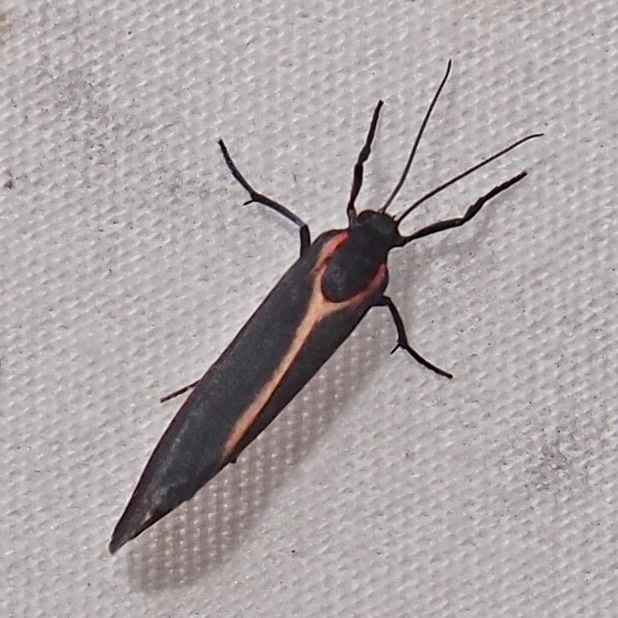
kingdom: Animalia
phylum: Arthropoda
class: Insecta
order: Lepidoptera
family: Erebidae
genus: Cisthene
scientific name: Cisthene juanita
